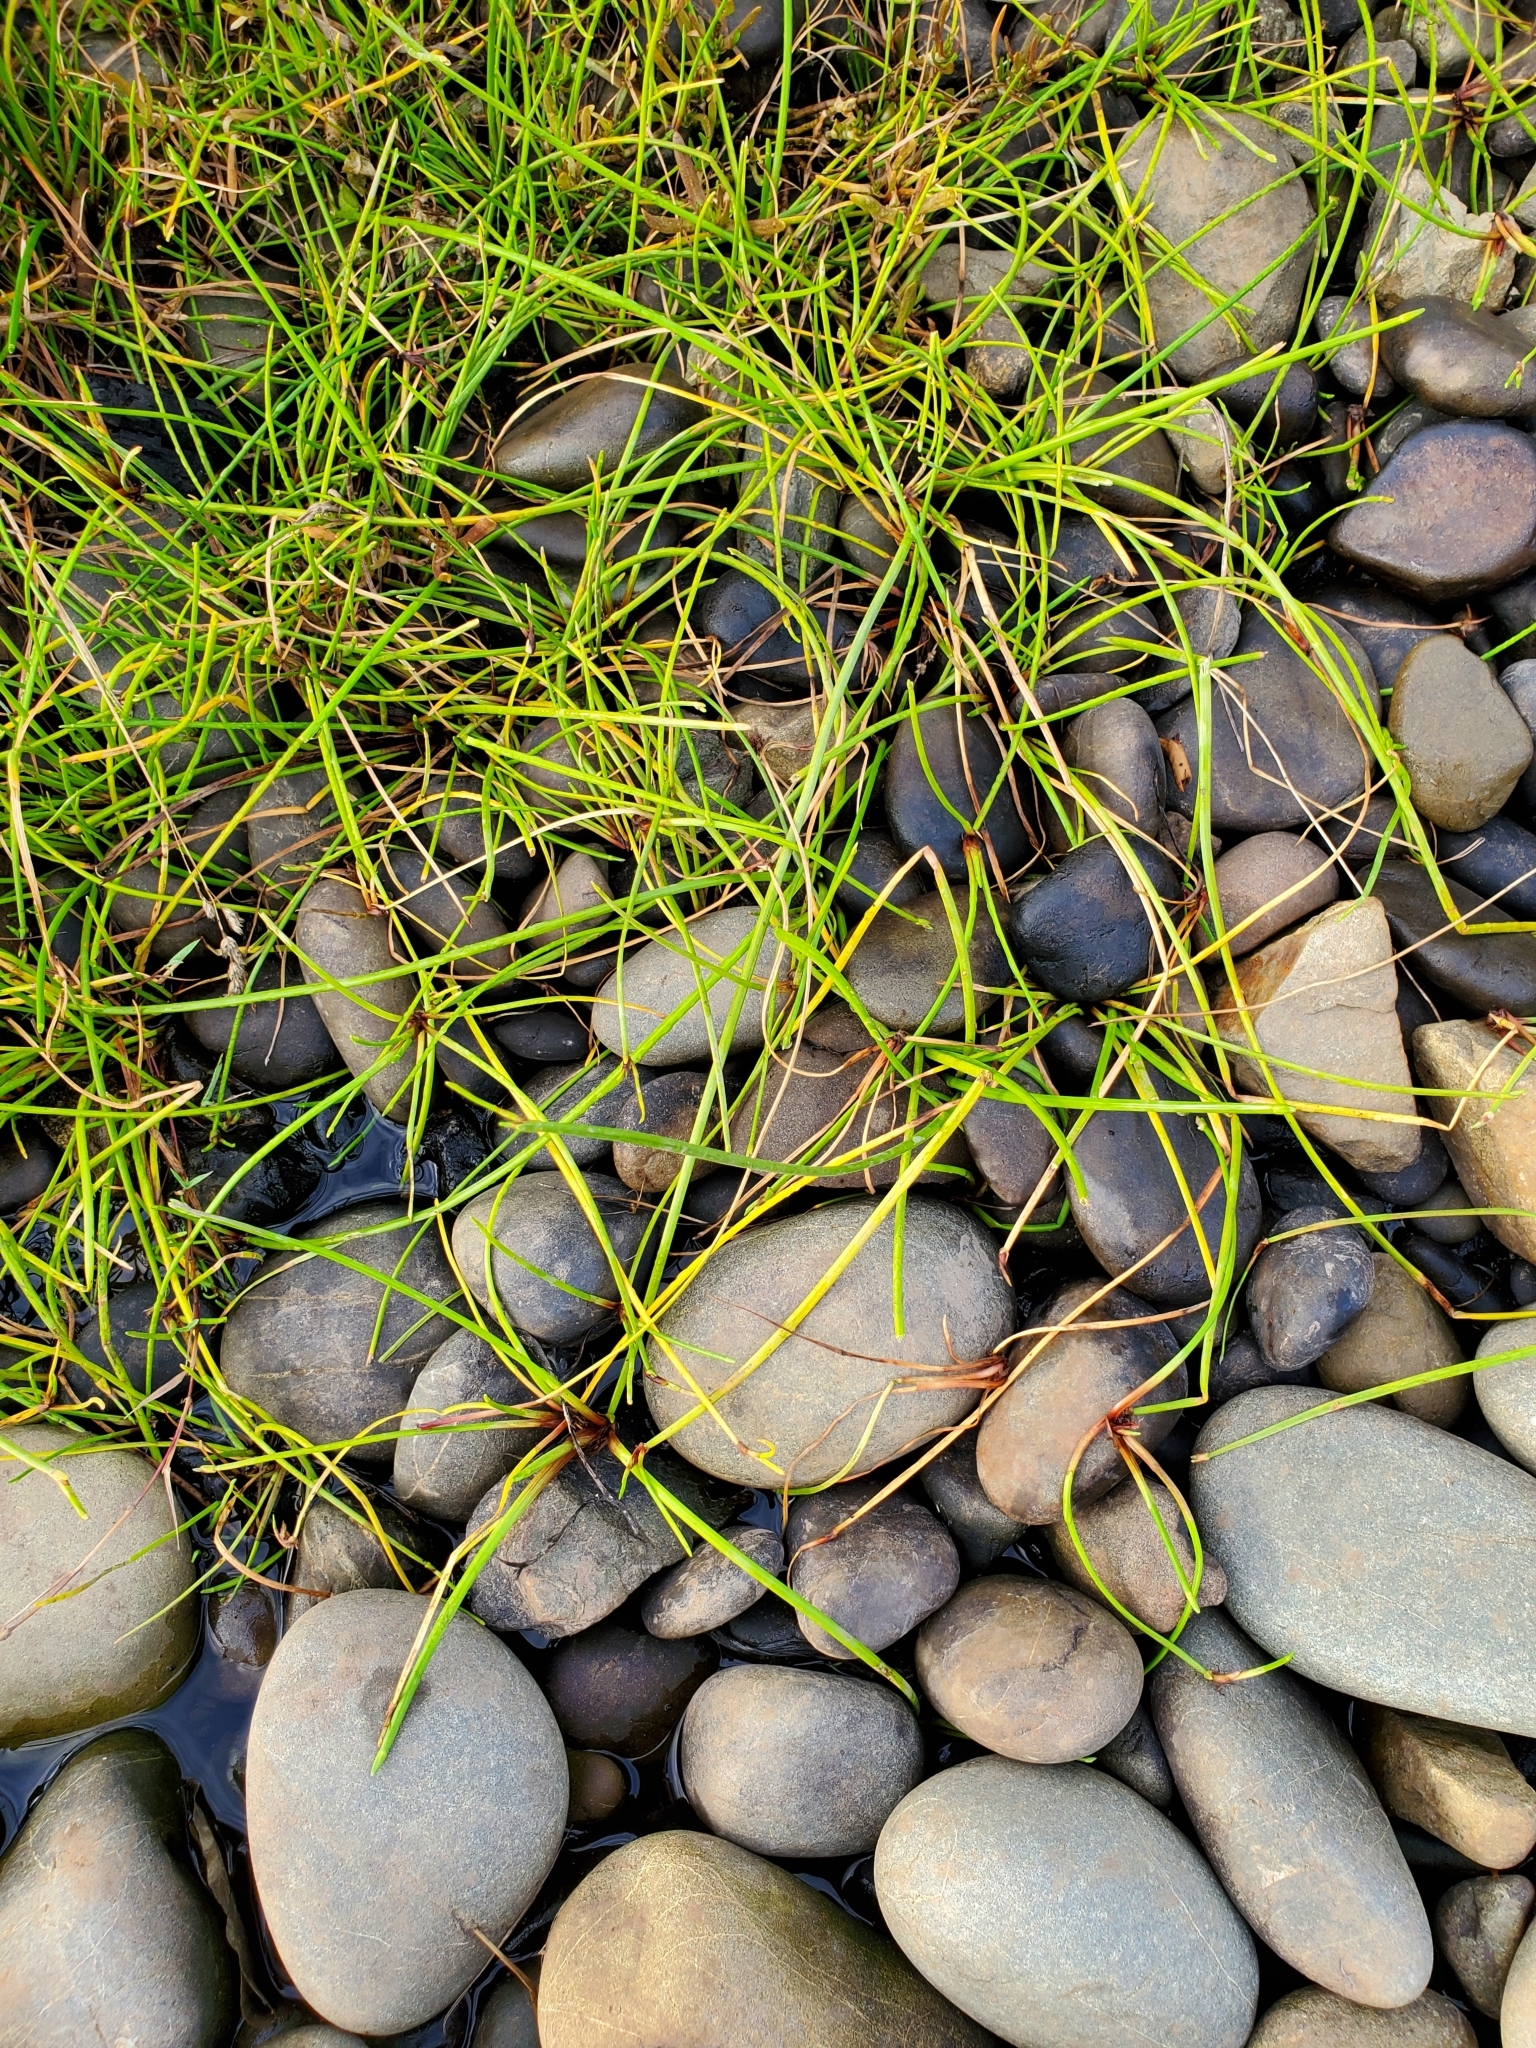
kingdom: Plantae
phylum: Tracheophyta
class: Liliopsida
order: Poales
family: Cyperaceae
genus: Isolepis
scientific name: Isolepis prolifera
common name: Proliferating bulrush
